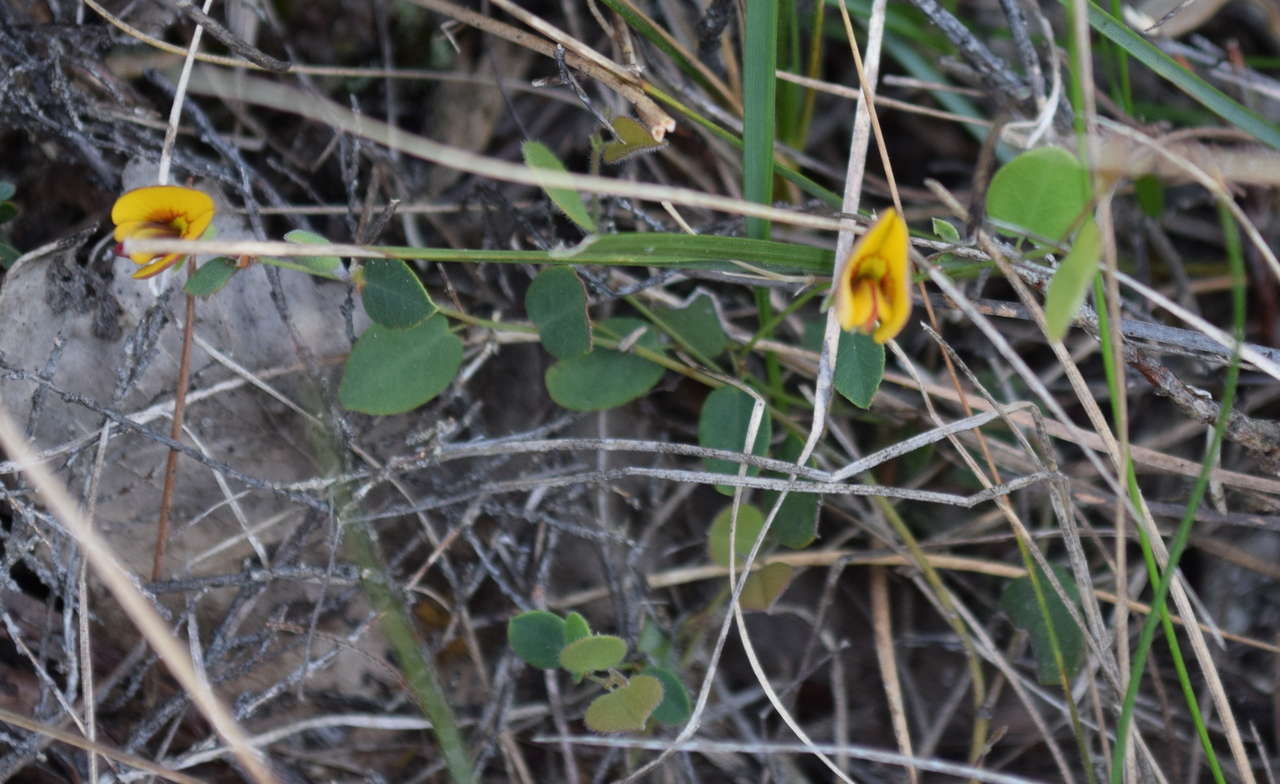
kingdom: Plantae
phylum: Tracheophyta
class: Magnoliopsida
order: Fabales
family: Fabaceae
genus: Bossiaea
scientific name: Bossiaea prostrata
